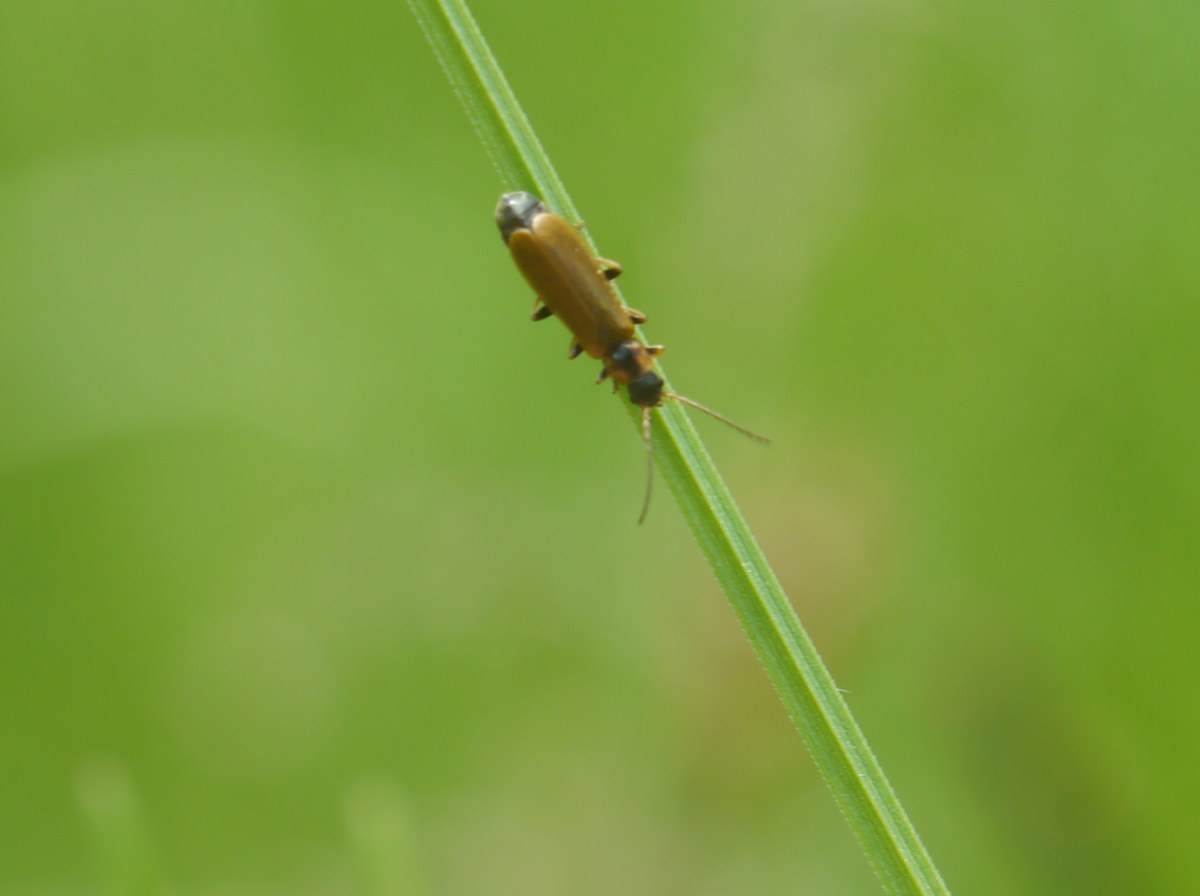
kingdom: Animalia
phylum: Arthropoda
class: Insecta
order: Coleoptera
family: Cantharidae
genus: Rhagonycha
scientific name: Rhagonycha testacea
